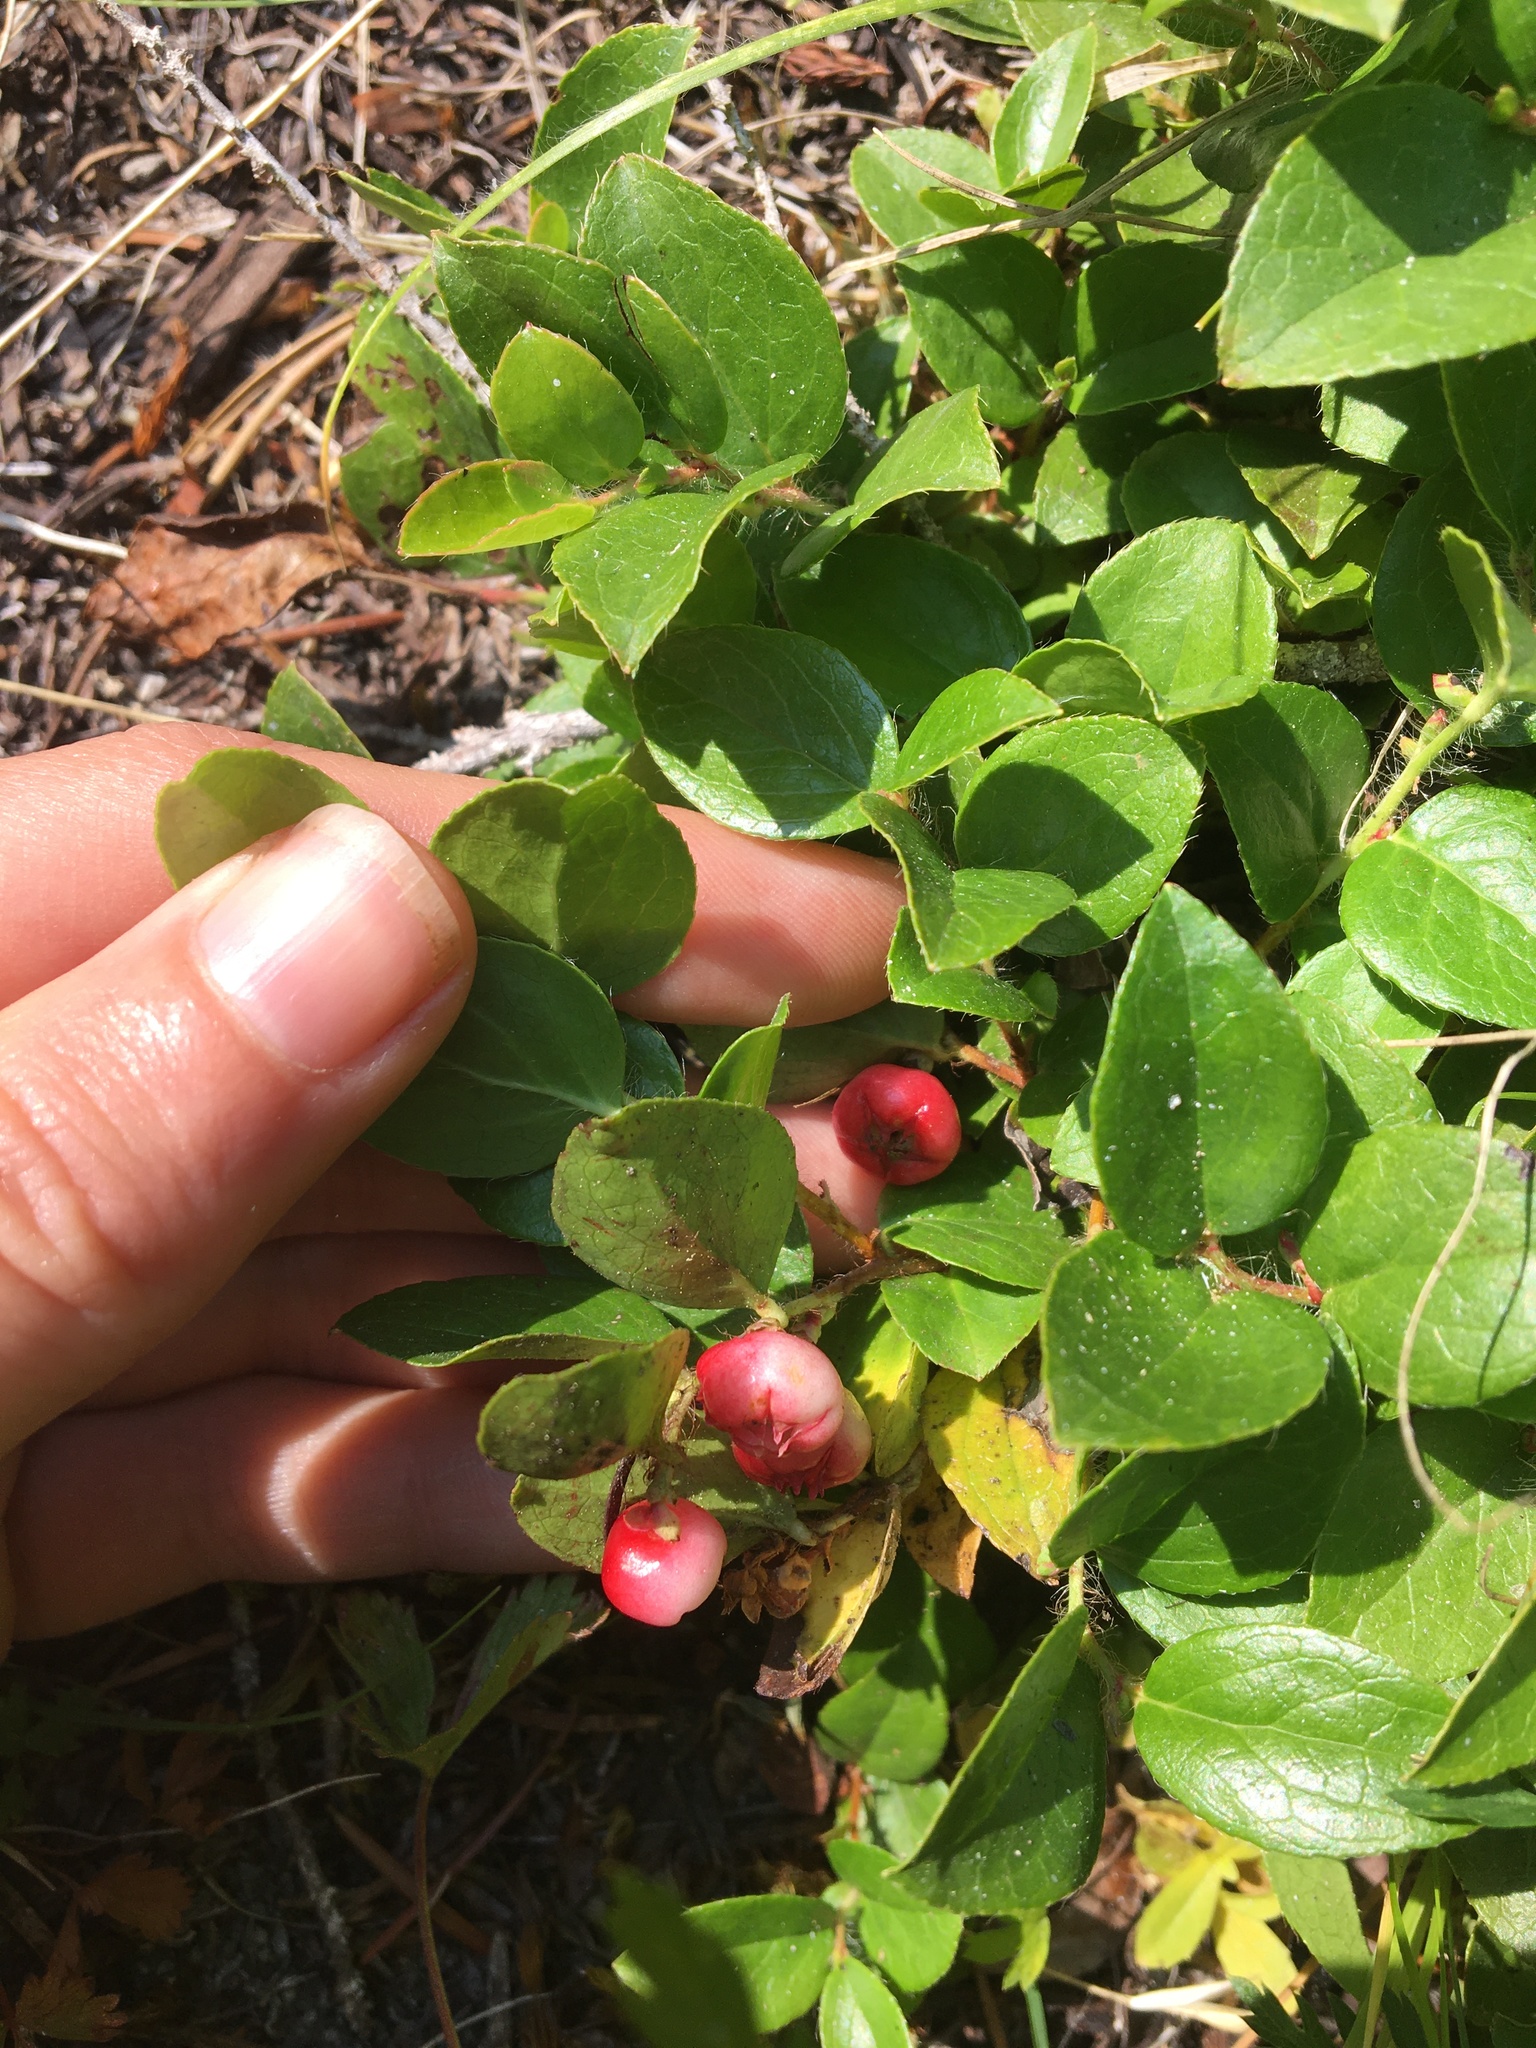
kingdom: Plantae
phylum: Tracheophyta
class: Magnoliopsida
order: Ericales
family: Ericaceae
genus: Gaultheria
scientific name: Gaultheria humifusa
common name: Alpine wintergreen
